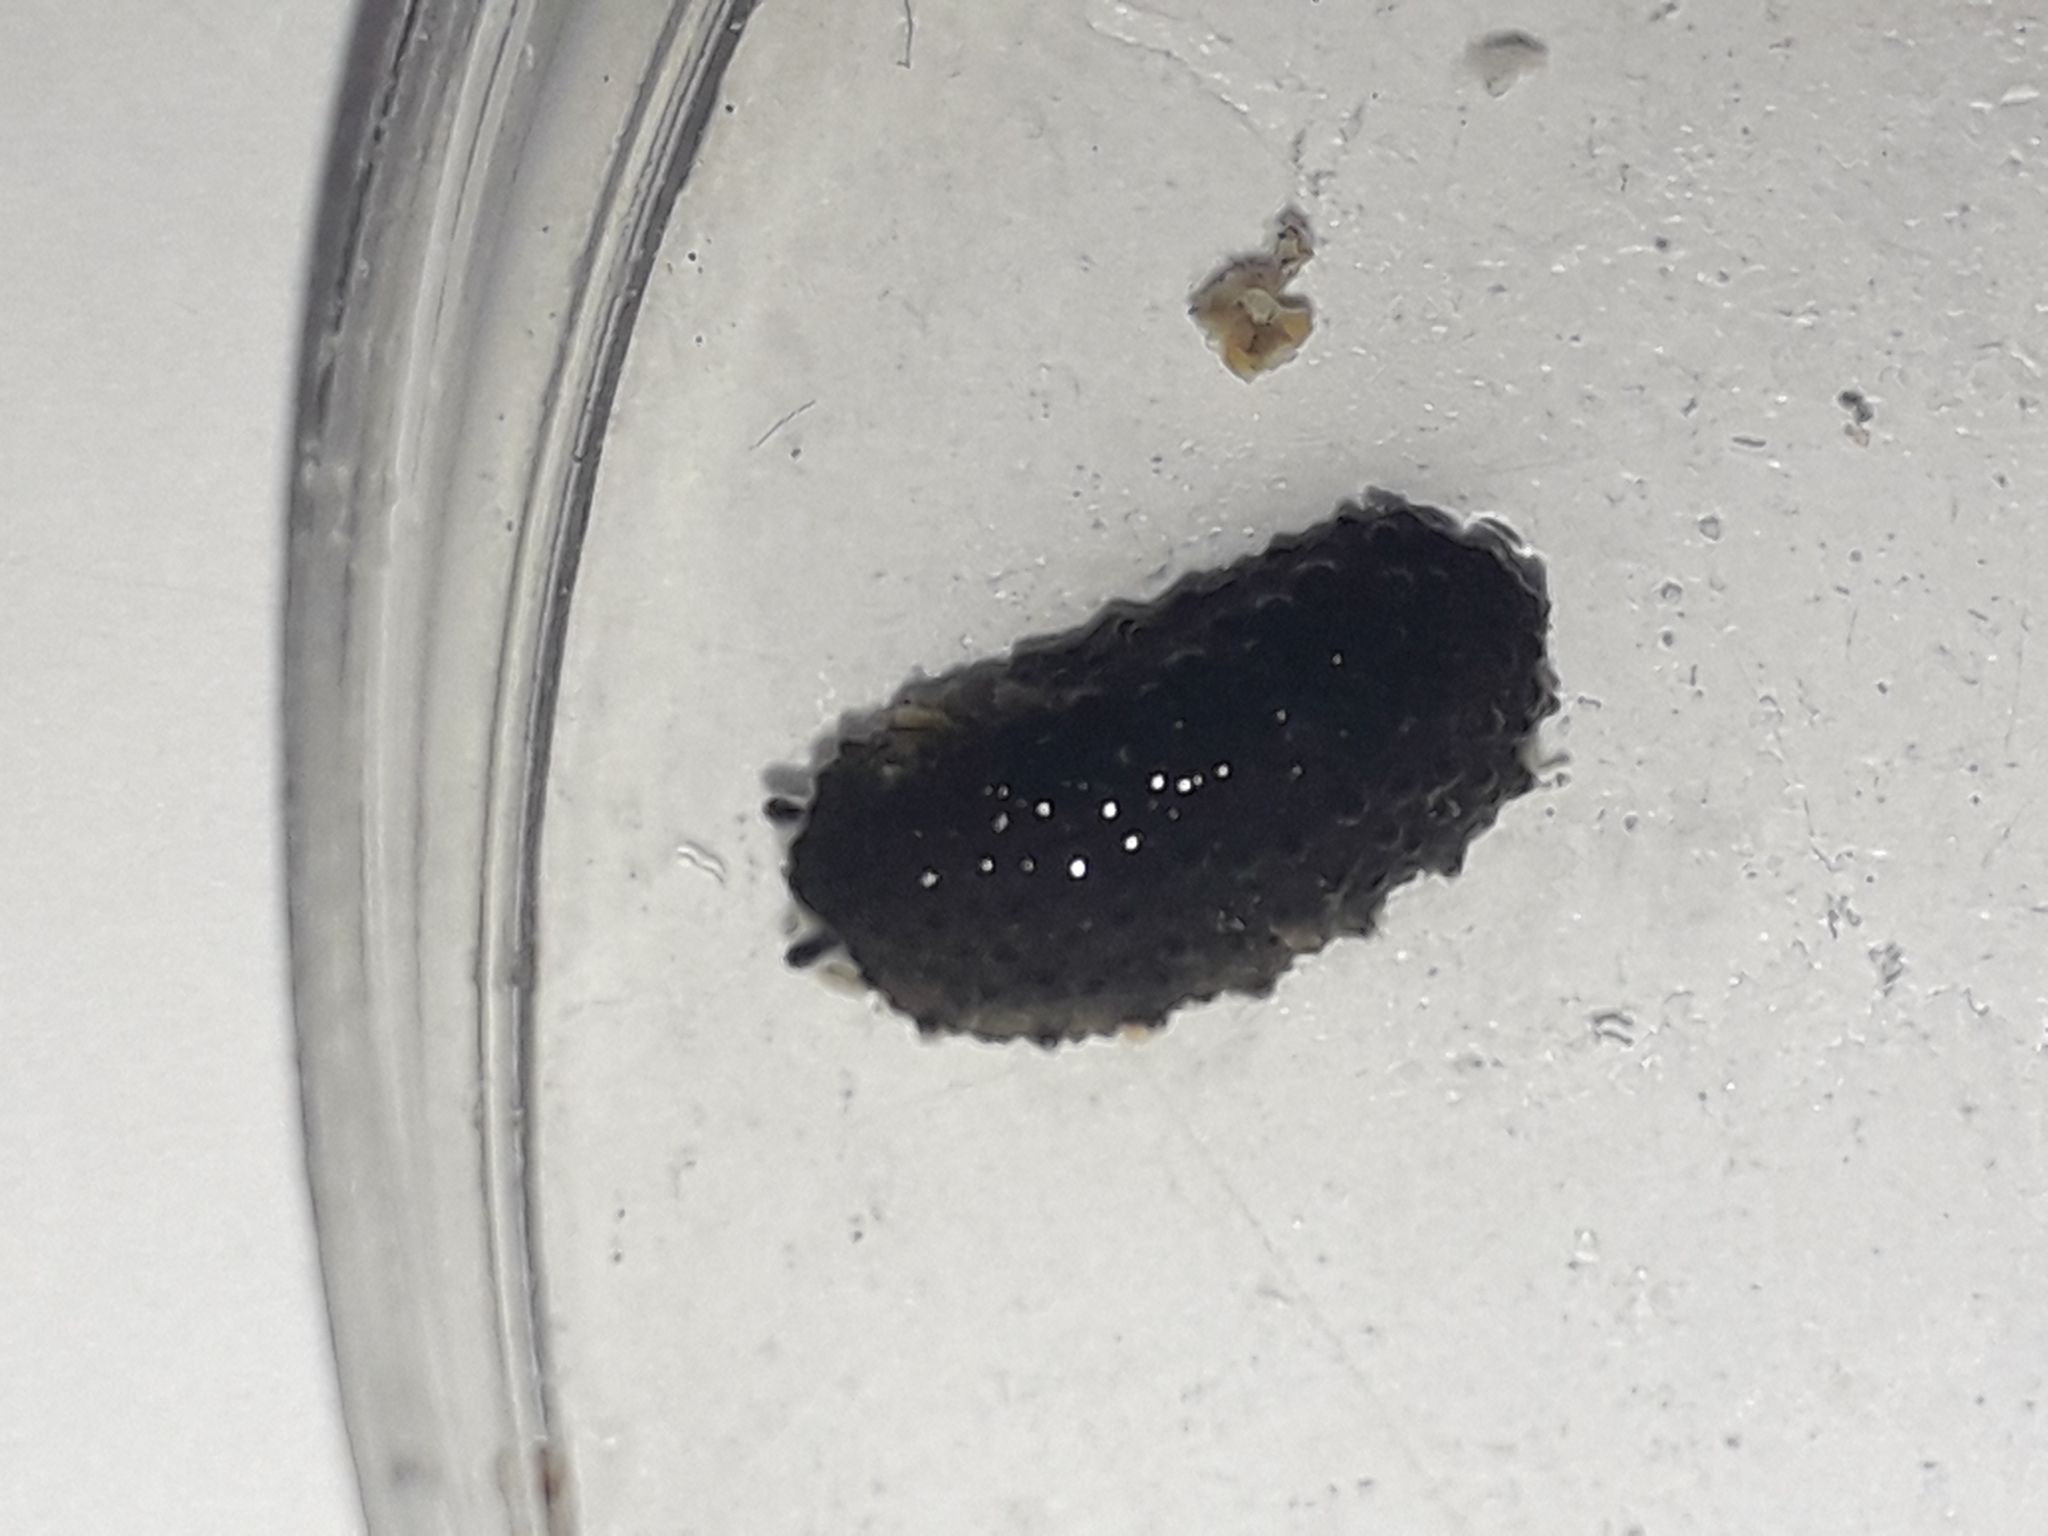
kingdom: Animalia
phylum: Mollusca
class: Gastropoda
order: Systellommatophora
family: Onchidiidae
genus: Onchidella
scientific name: Onchidella celtica
